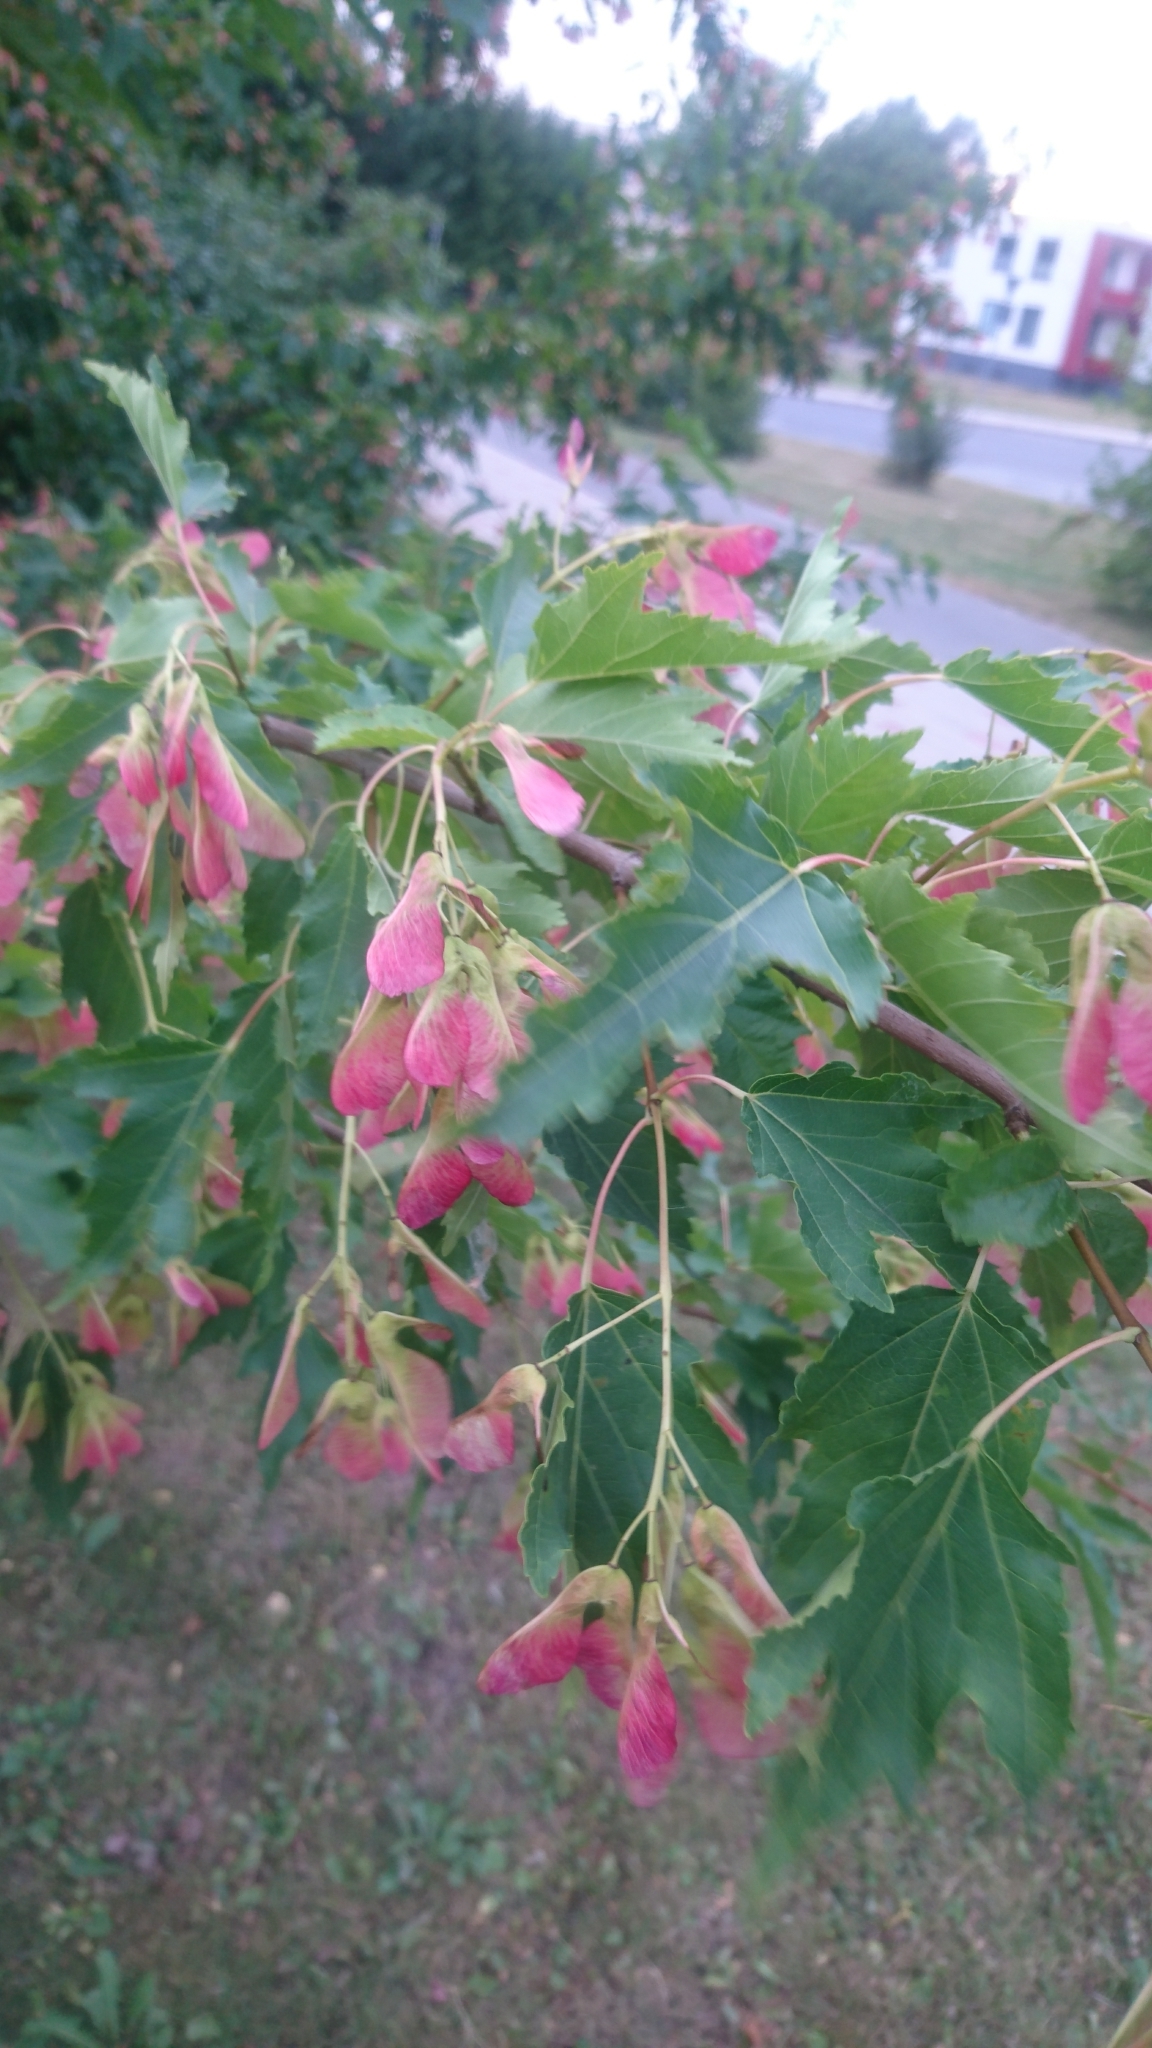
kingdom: Plantae
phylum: Tracheophyta
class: Magnoliopsida
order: Sapindales
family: Sapindaceae
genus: Acer
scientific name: Acer tataricum
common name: Tartar maple
